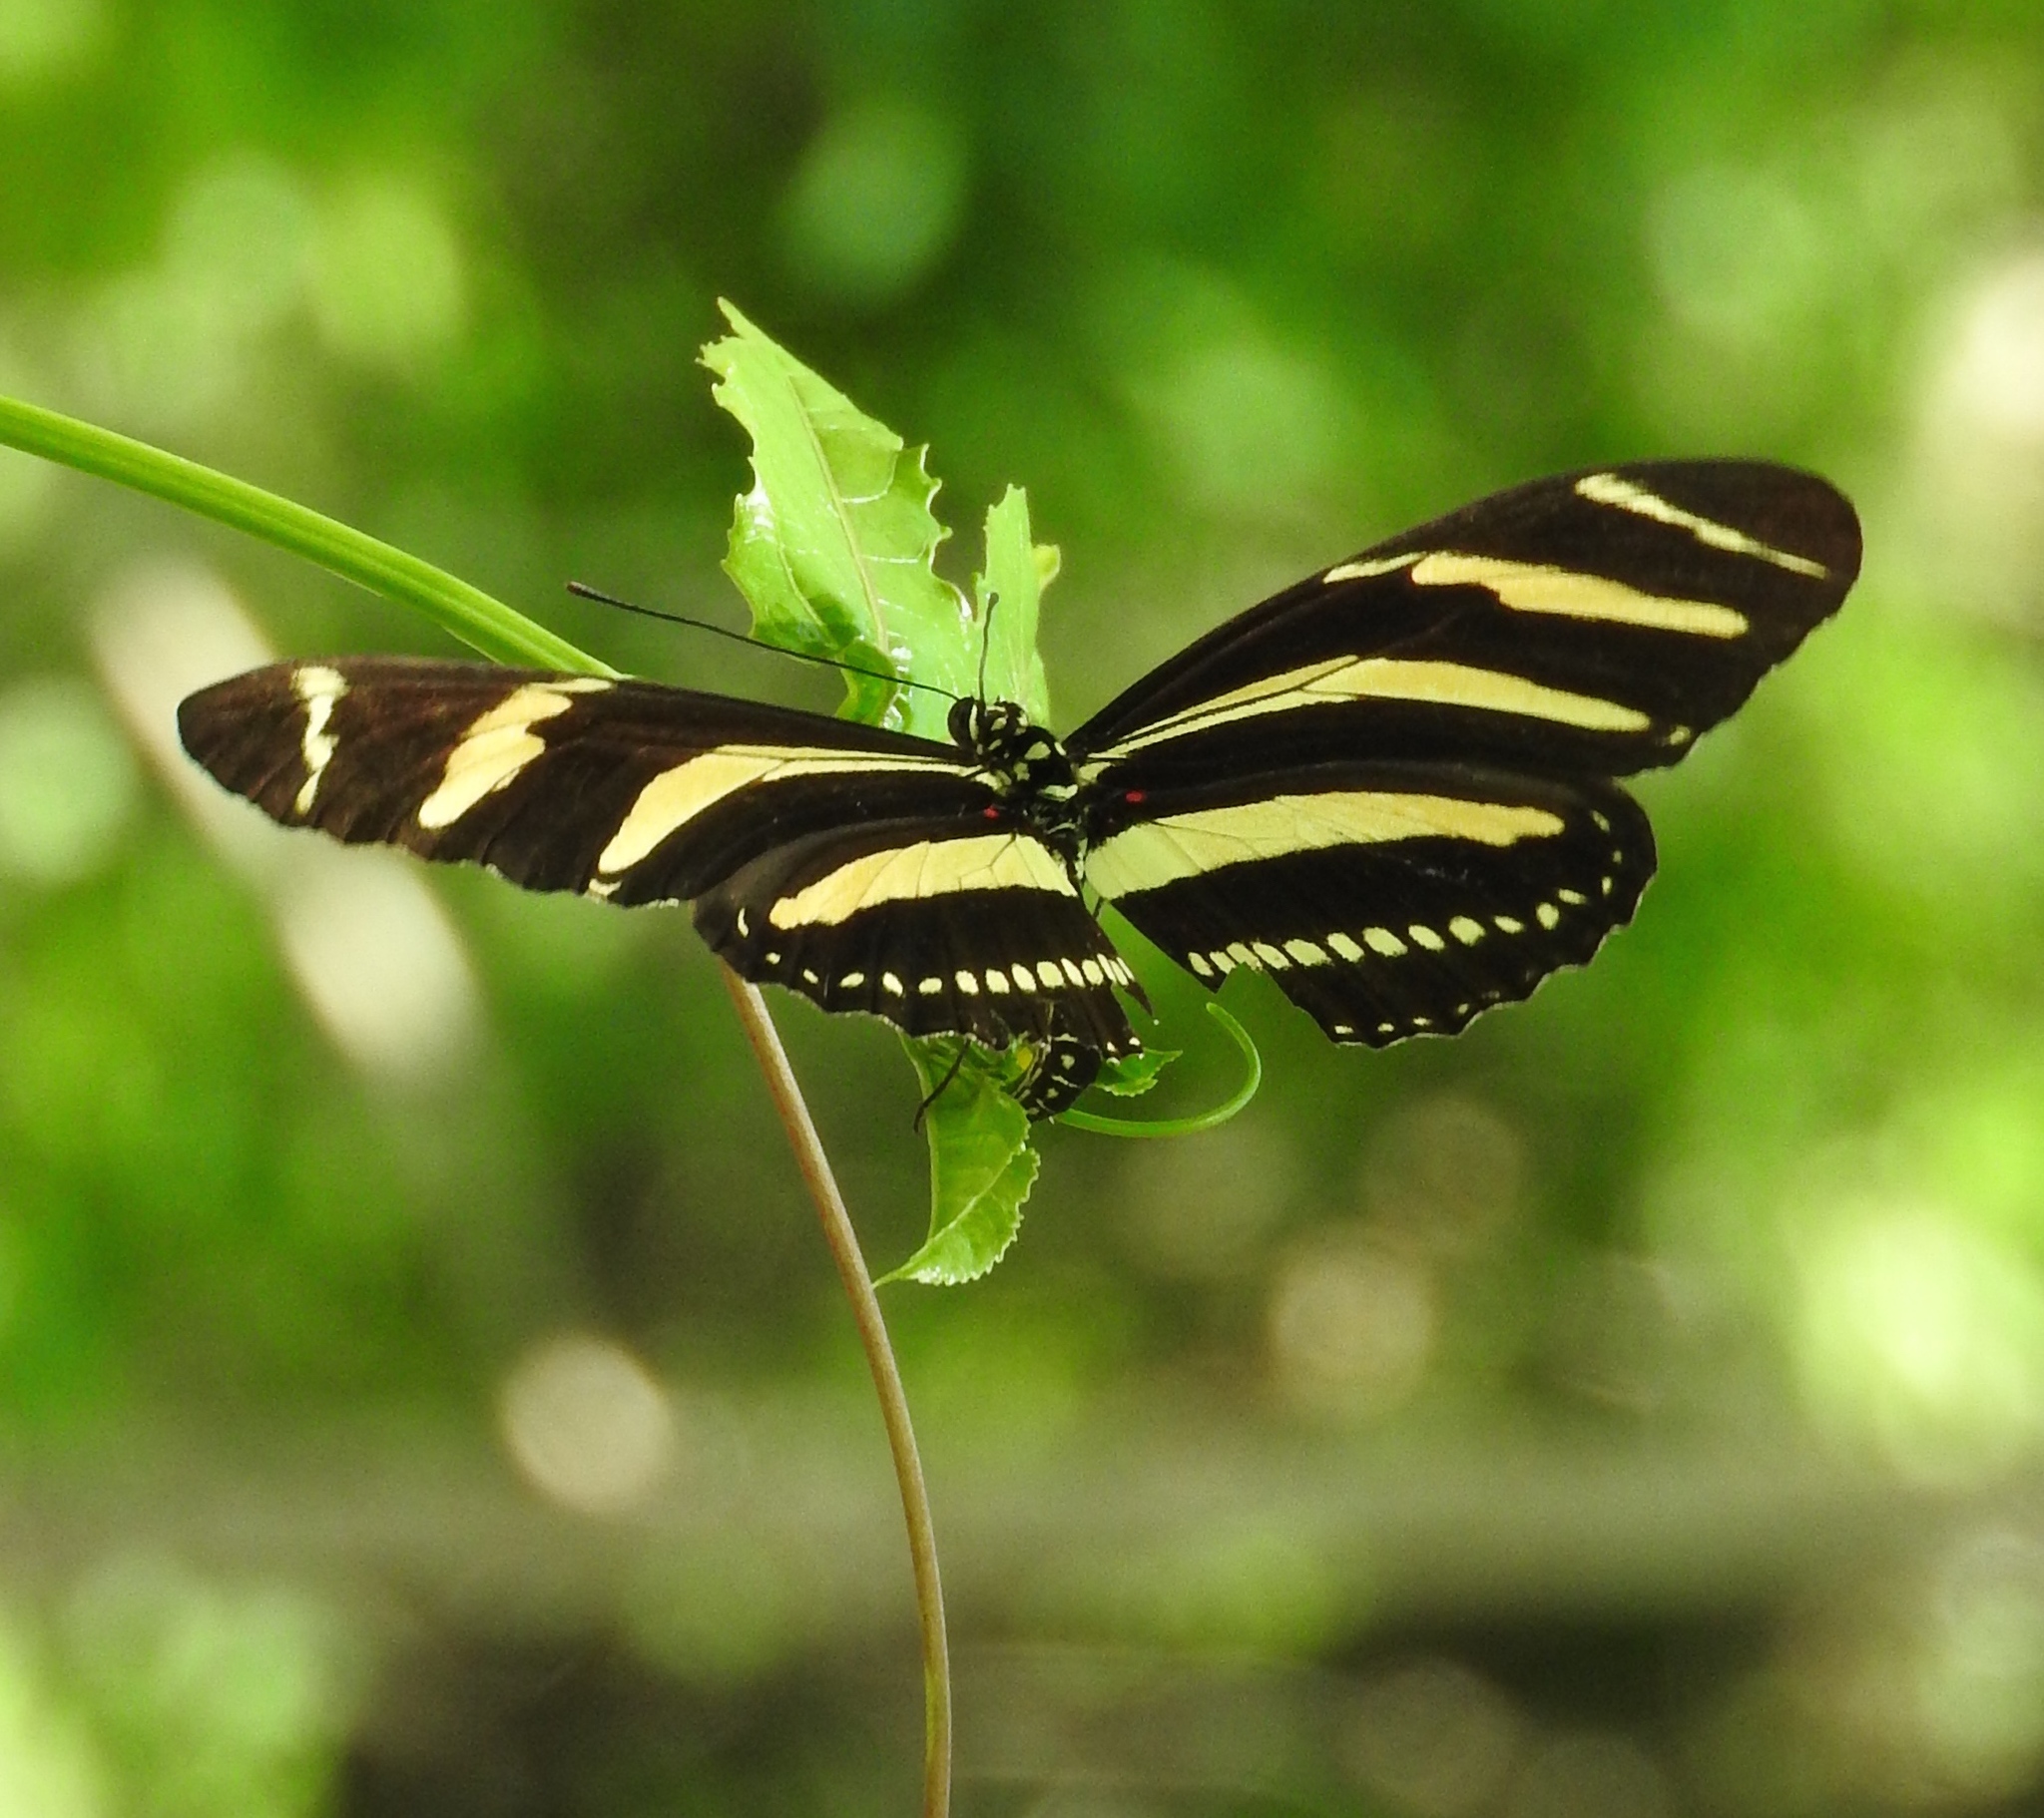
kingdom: Animalia
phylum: Arthropoda
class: Insecta
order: Lepidoptera
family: Nymphalidae
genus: Heliconius
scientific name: Heliconius charithonia
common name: Zebra long wing
